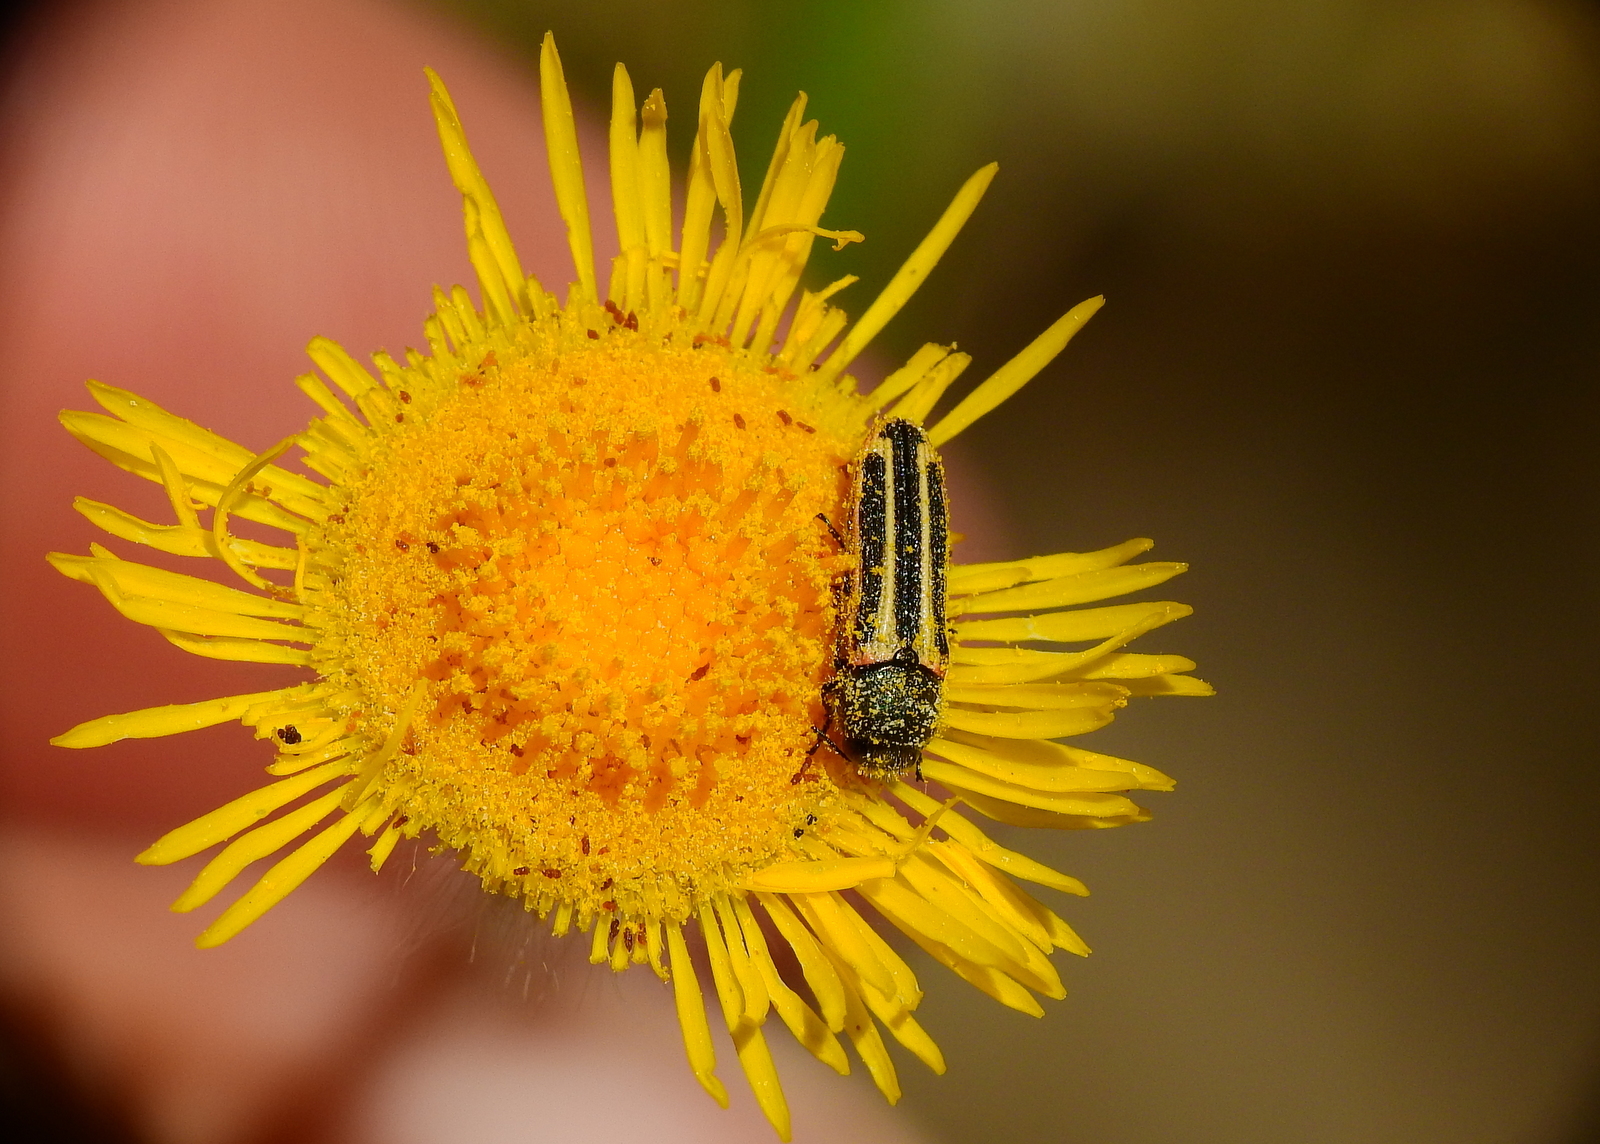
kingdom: Animalia
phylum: Arthropoda
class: Insecta
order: Coleoptera
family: Buprestidae
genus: Lasionota
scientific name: Lasionota alternans
